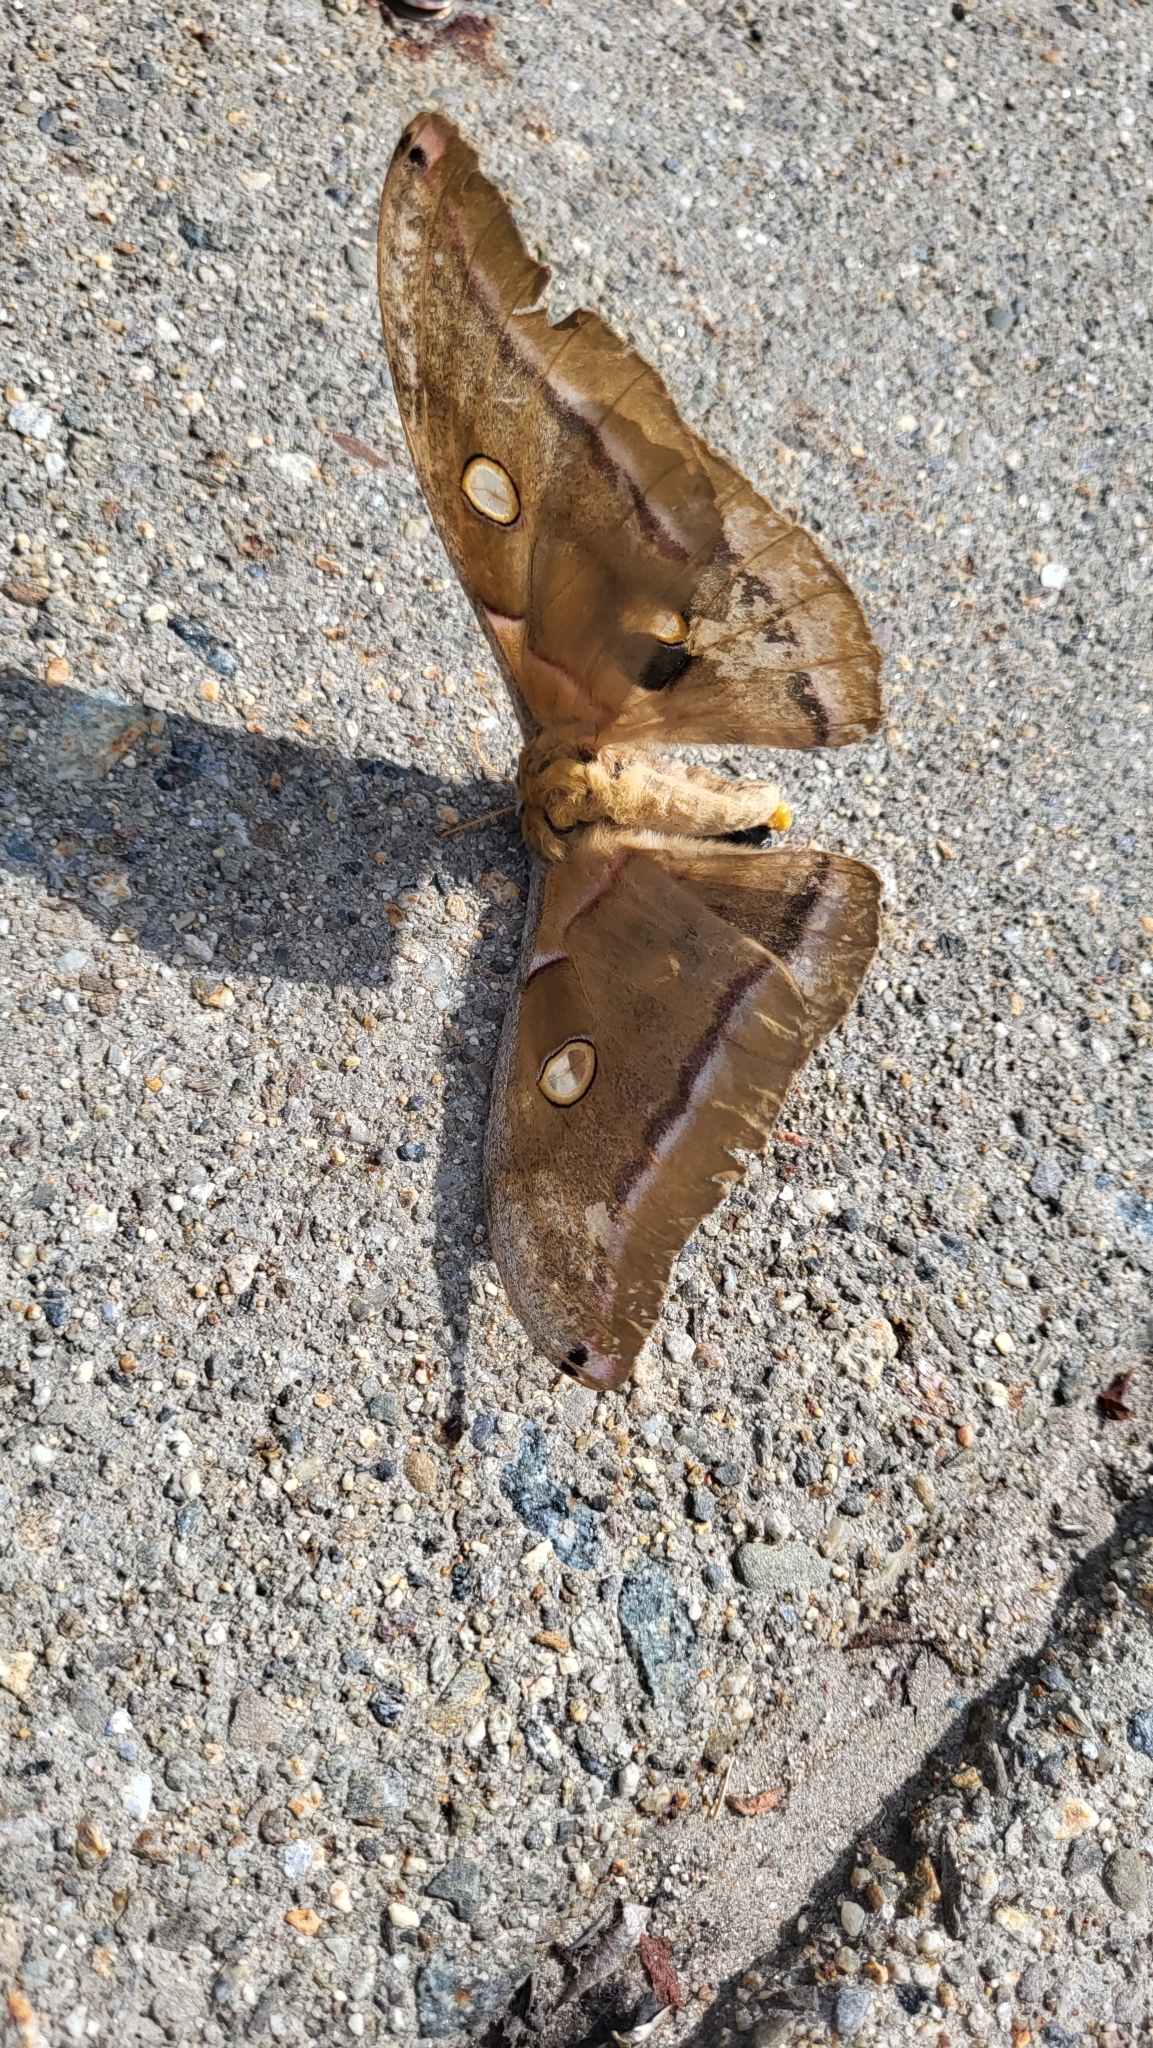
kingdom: Animalia
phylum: Arthropoda
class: Insecta
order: Lepidoptera
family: Saturniidae
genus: Antheraea
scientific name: Antheraea polyphemus
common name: Polyphemus moth
